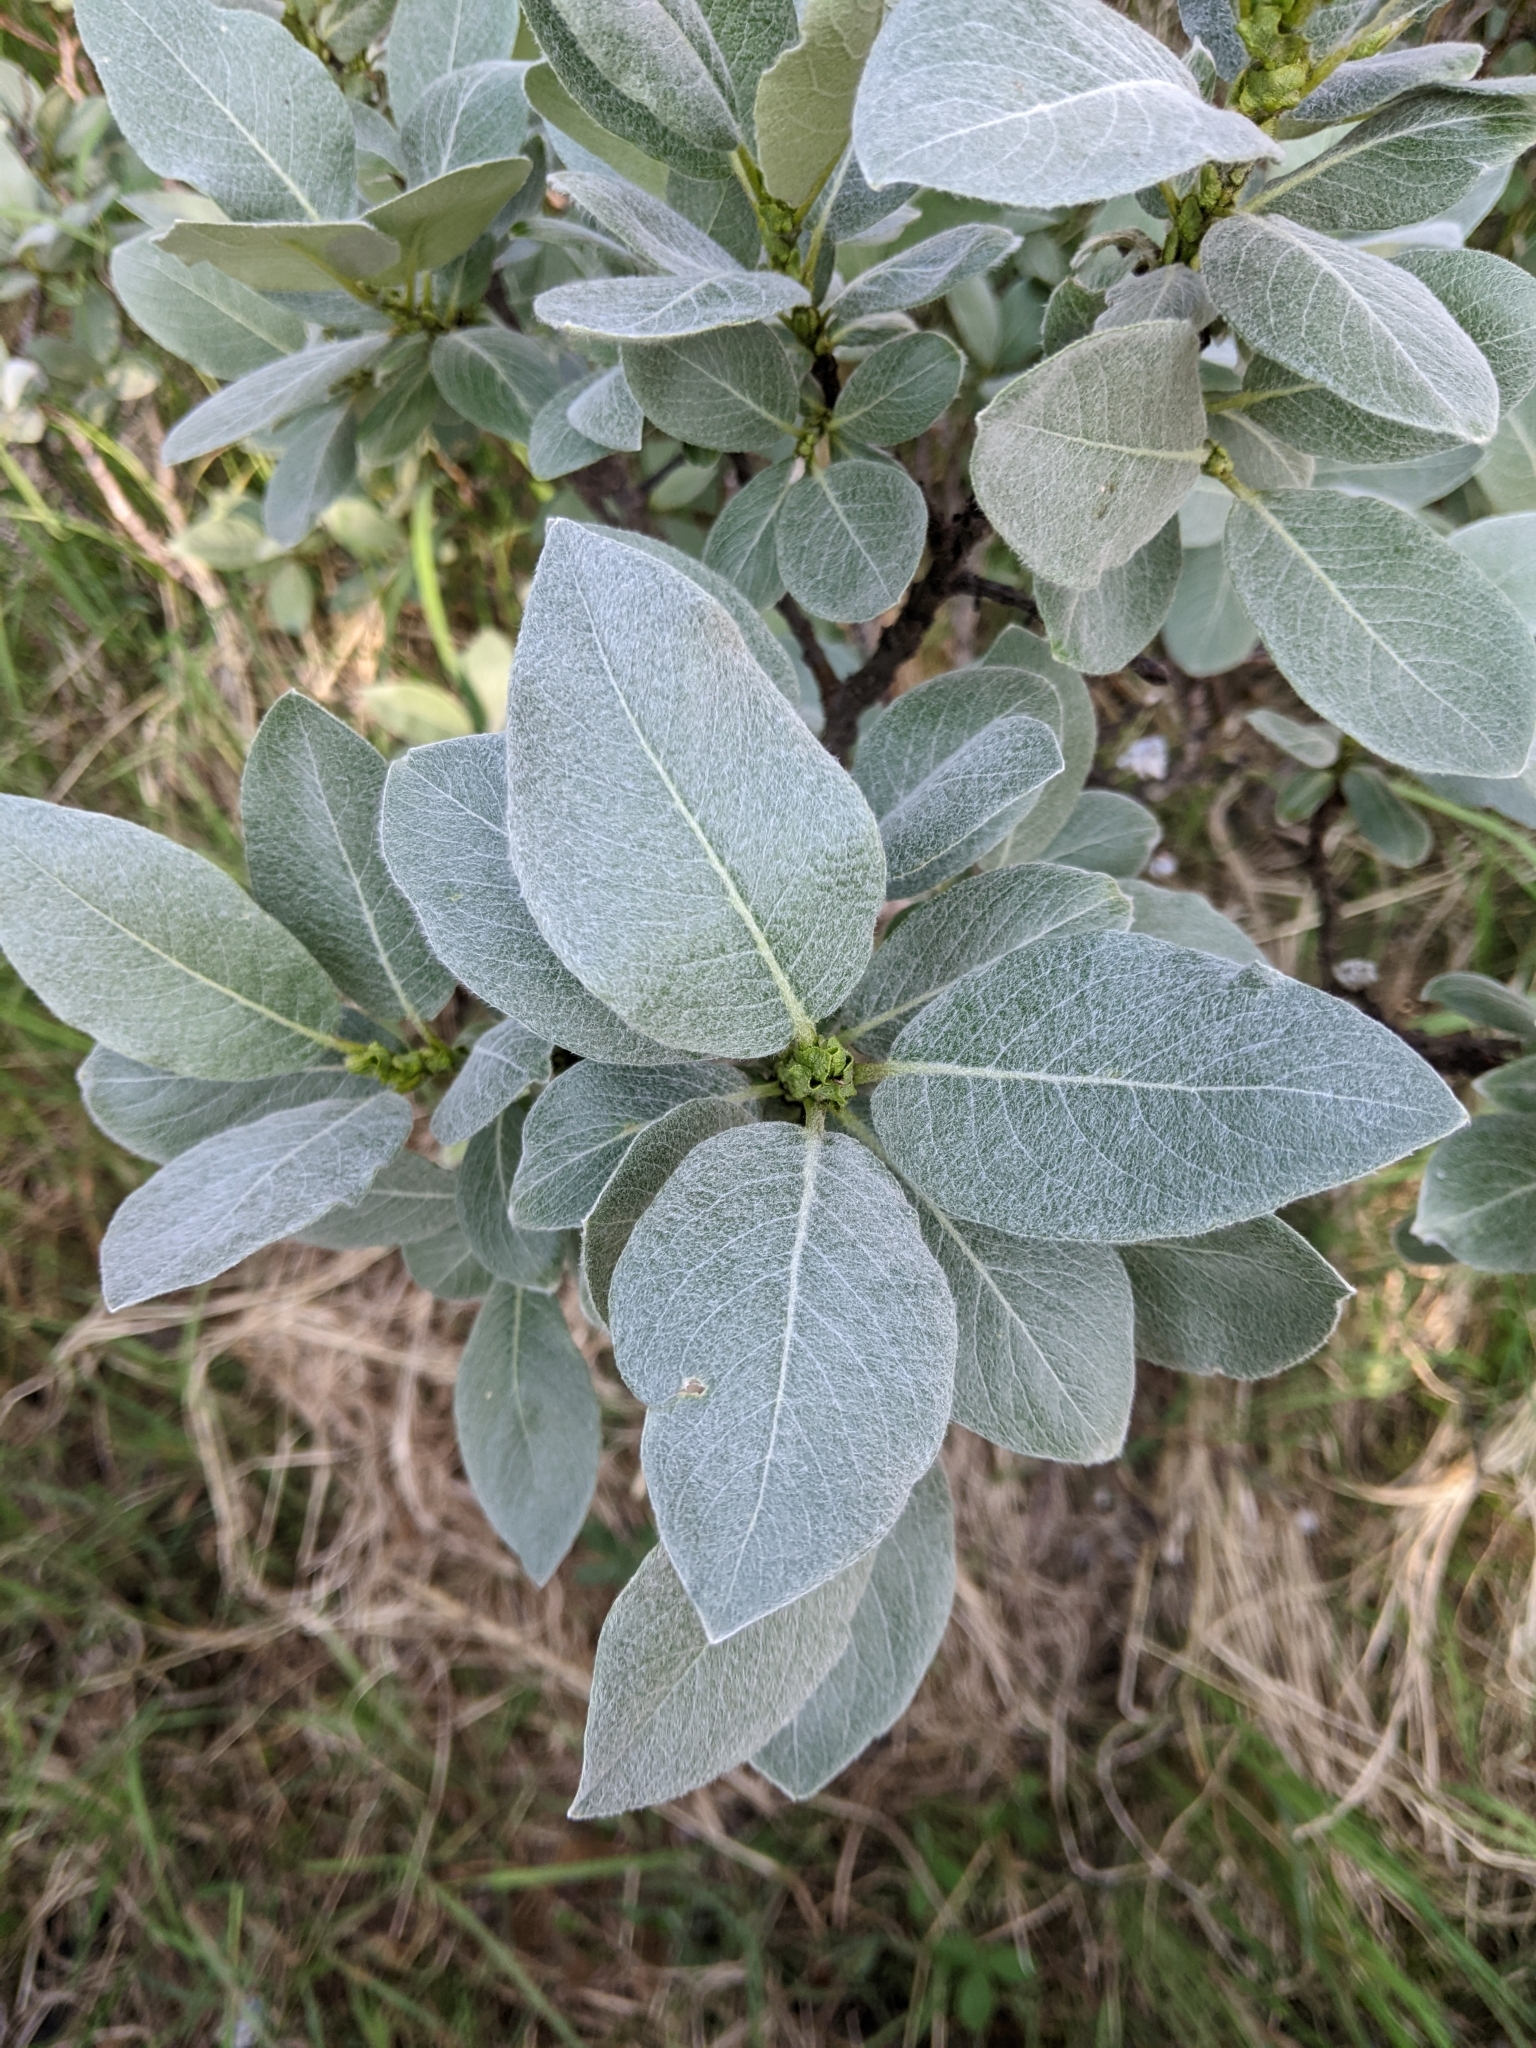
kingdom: Plantae
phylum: Tracheophyta
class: Magnoliopsida
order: Malpighiales
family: Salicaceae
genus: Salix
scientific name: Salix barrattiana
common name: Barratt's willow
